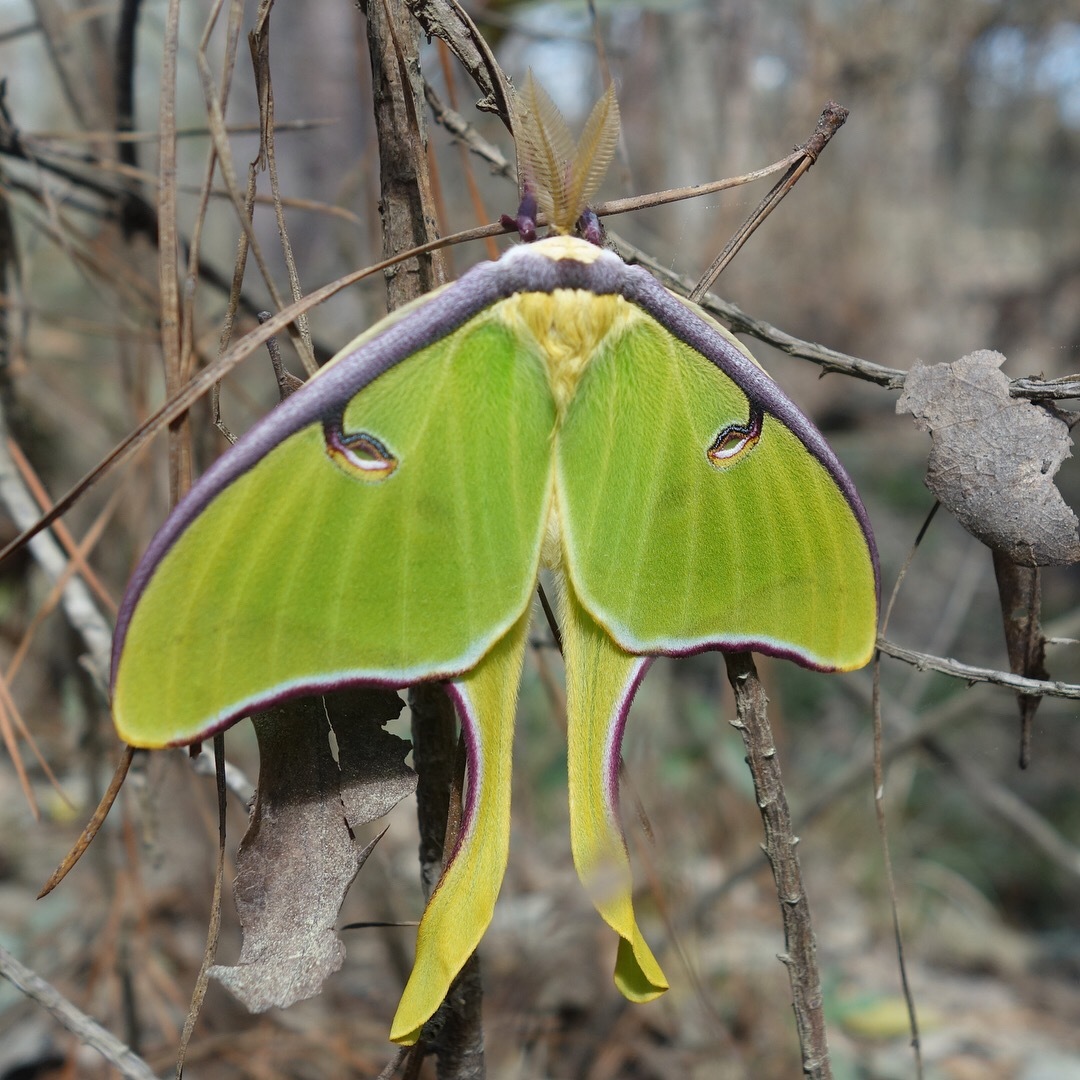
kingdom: Animalia
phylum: Arthropoda
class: Insecta
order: Lepidoptera
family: Saturniidae
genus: Actias
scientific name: Actias luna
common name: Luna moth
